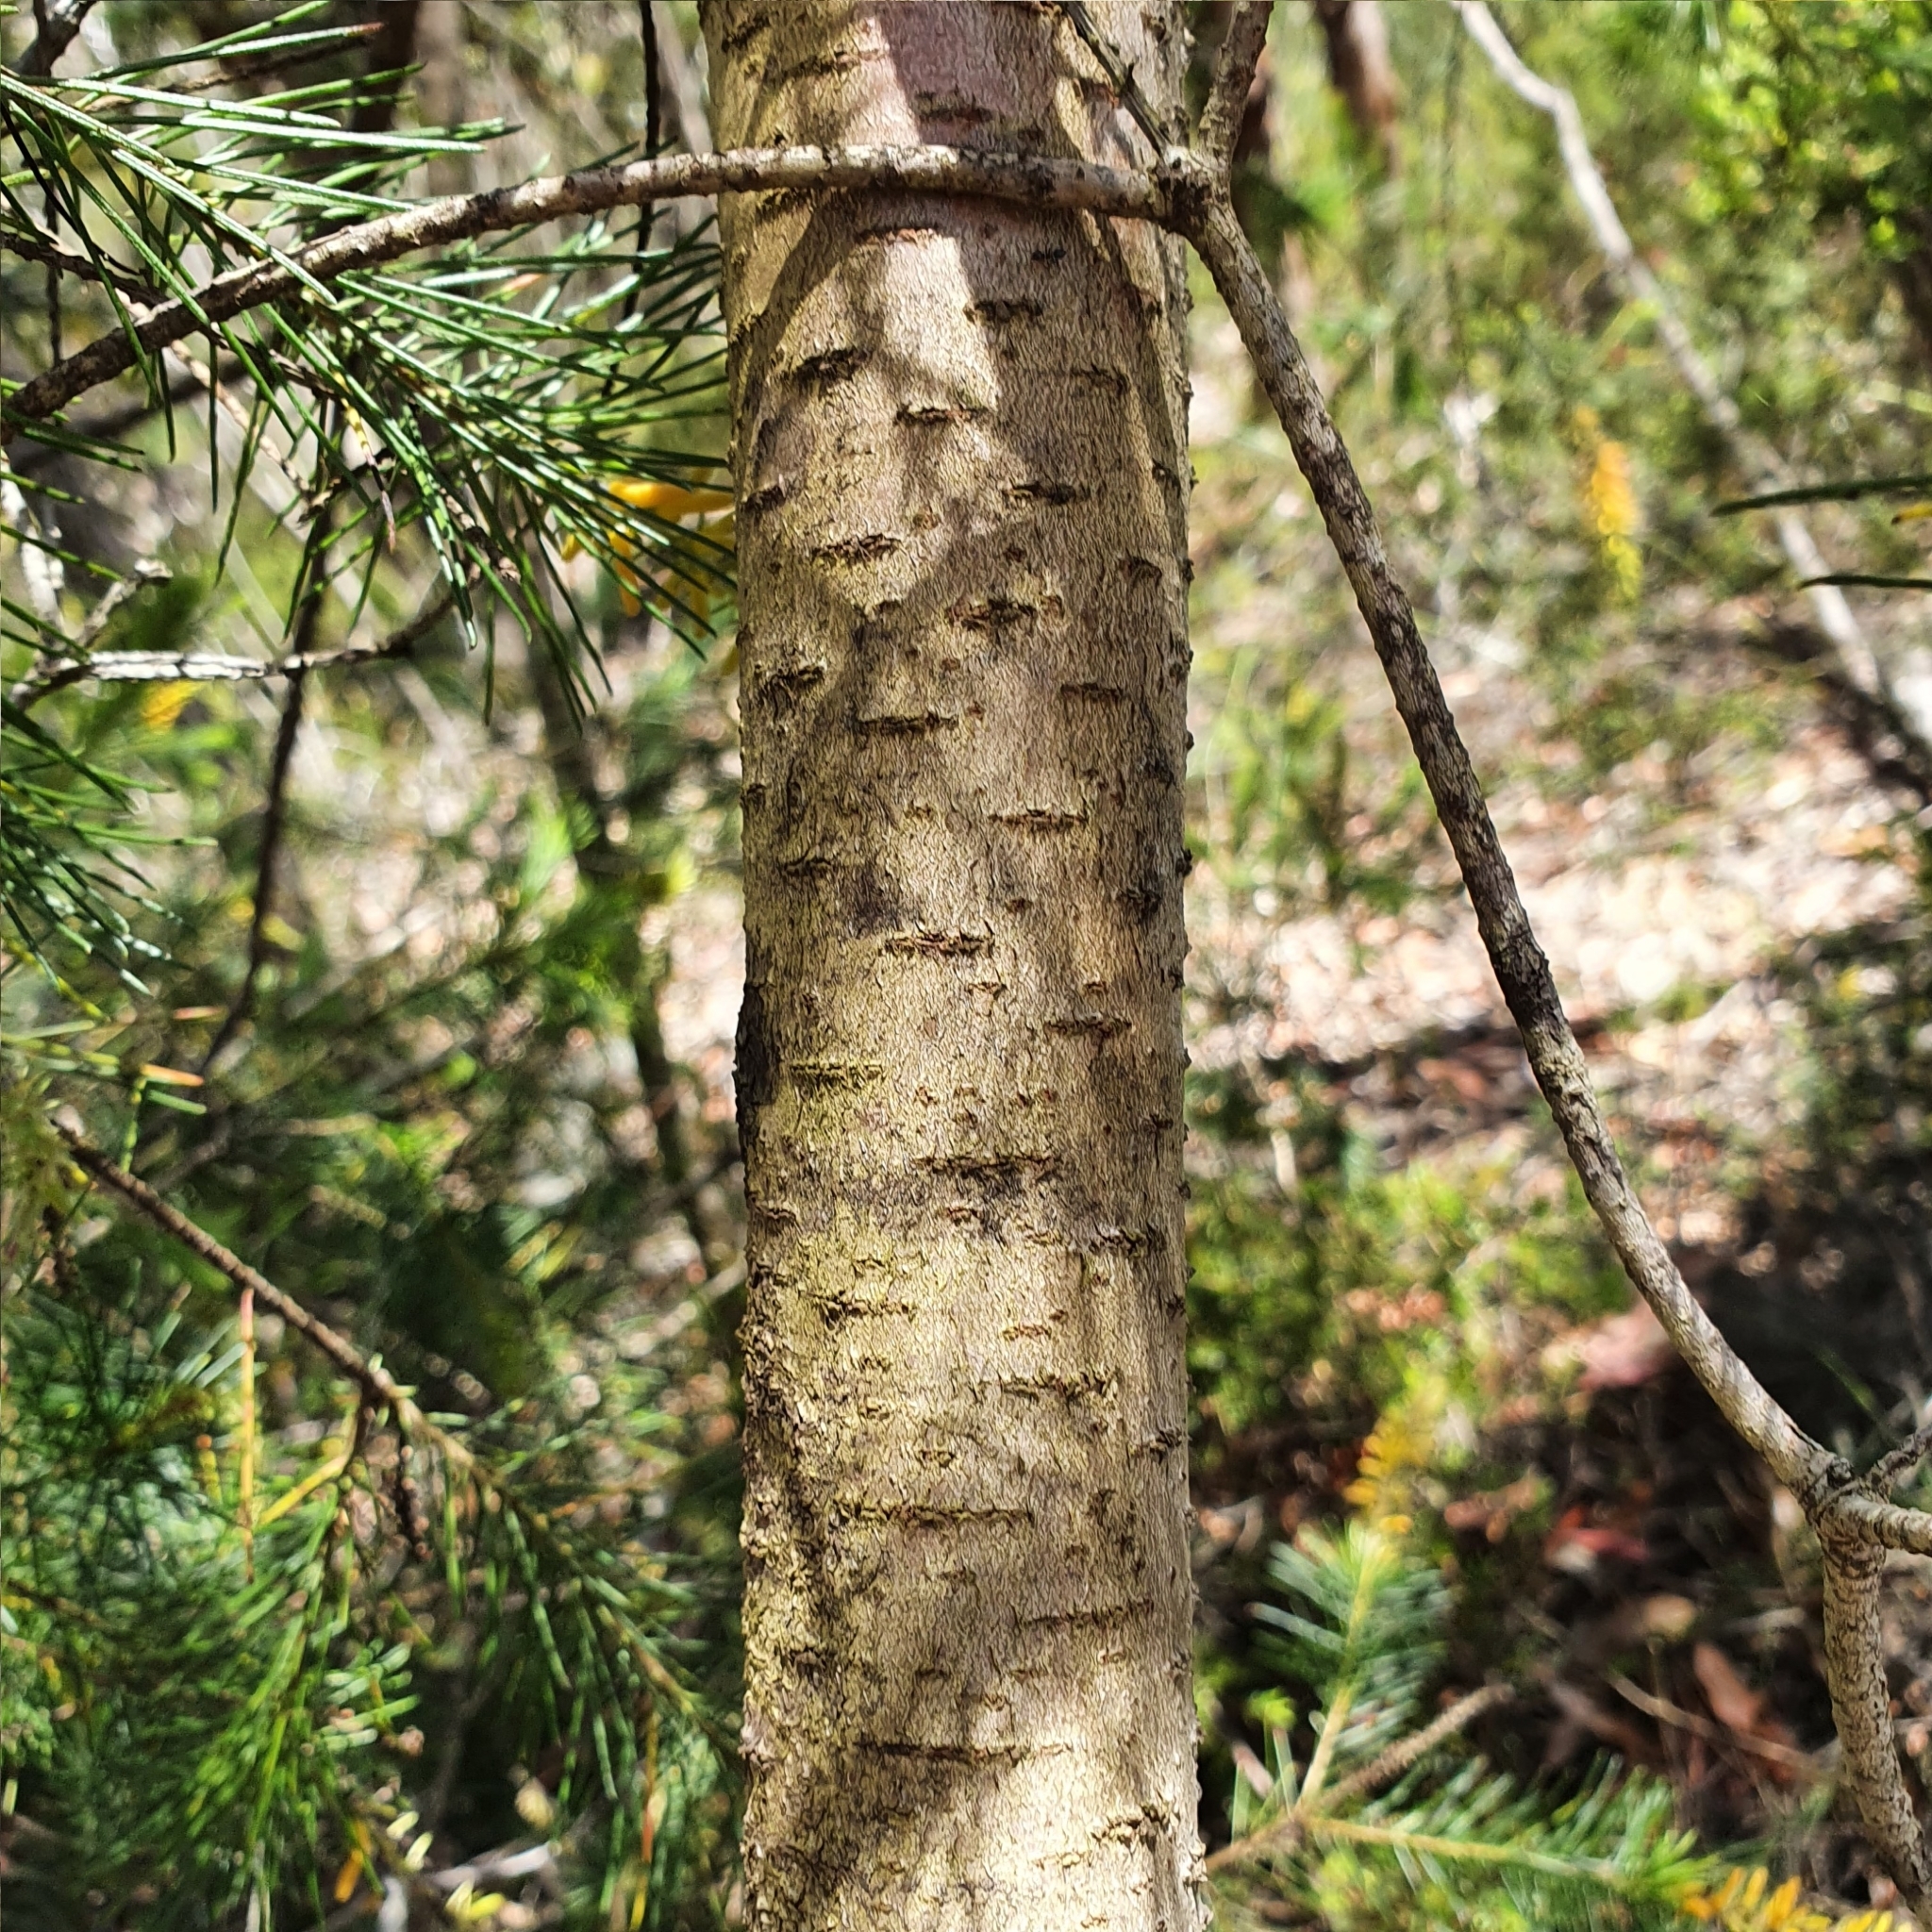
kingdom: Plantae
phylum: Tracheophyta
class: Magnoliopsida
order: Proteales
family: Proteaceae
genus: Persoonia
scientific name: Persoonia pinifolia
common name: Pine-leaf geebung
